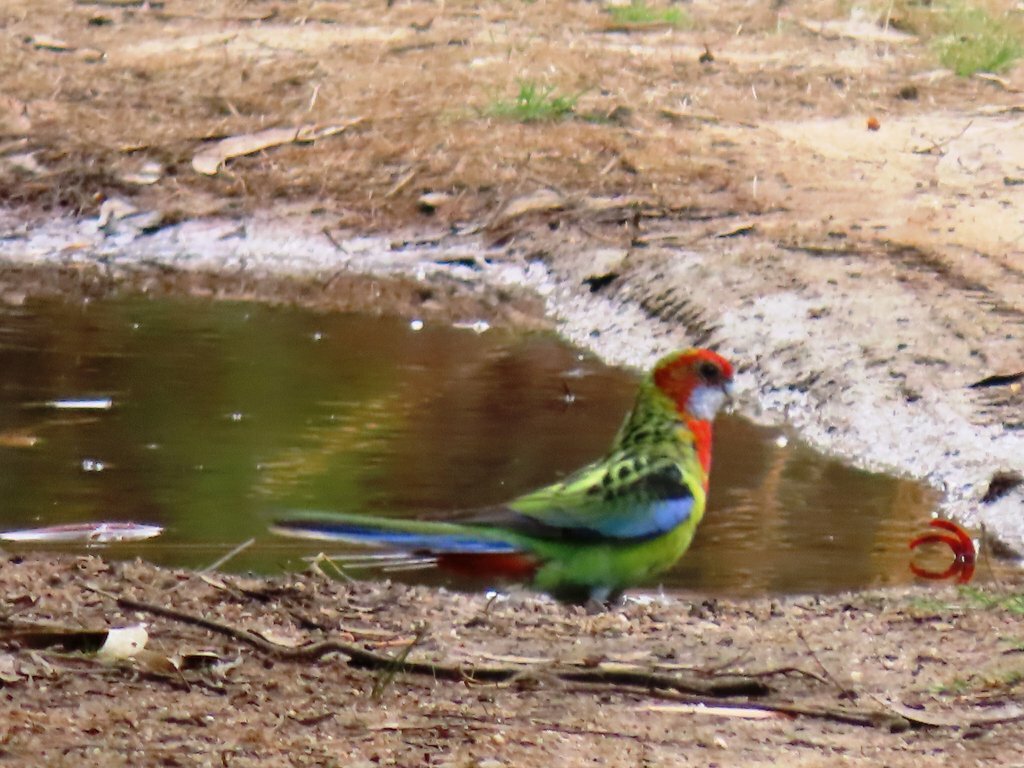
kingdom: Animalia
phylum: Chordata
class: Aves
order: Psittaciformes
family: Psittacidae
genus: Platycercus
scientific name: Platycercus eximius
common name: Eastern rosella
